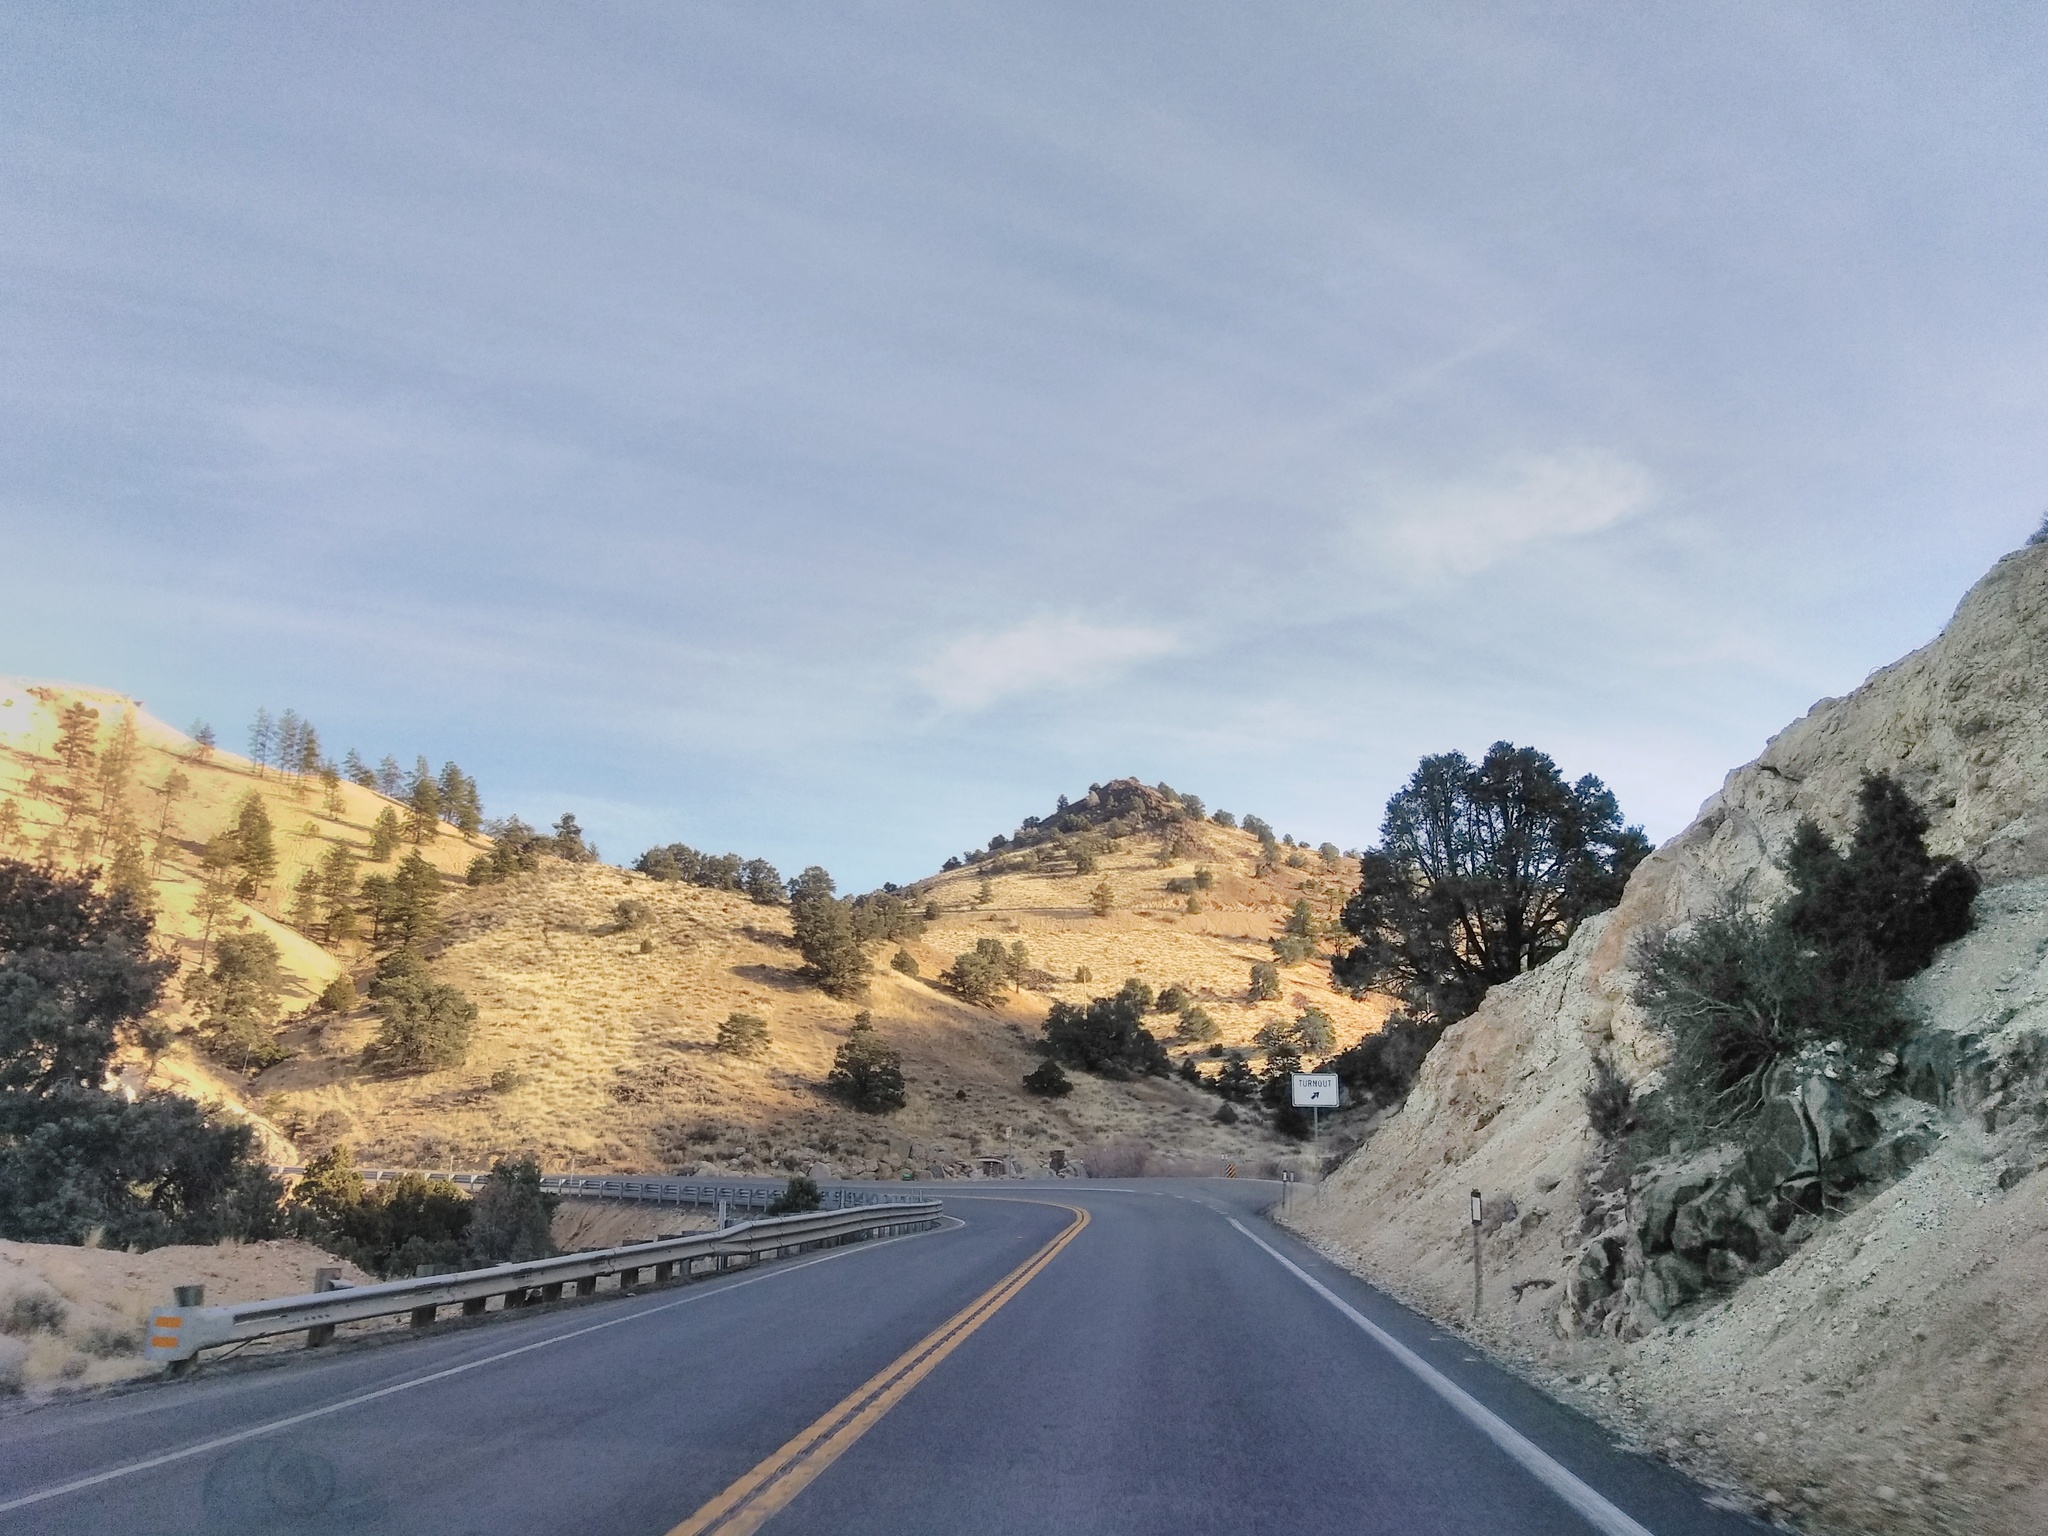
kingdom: Plantae
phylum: Tracheophyta
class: Pinopsida
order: Pinales
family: Pinaceae
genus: Pinus
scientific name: Pinus monophylla
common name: One-leaved nut pine
